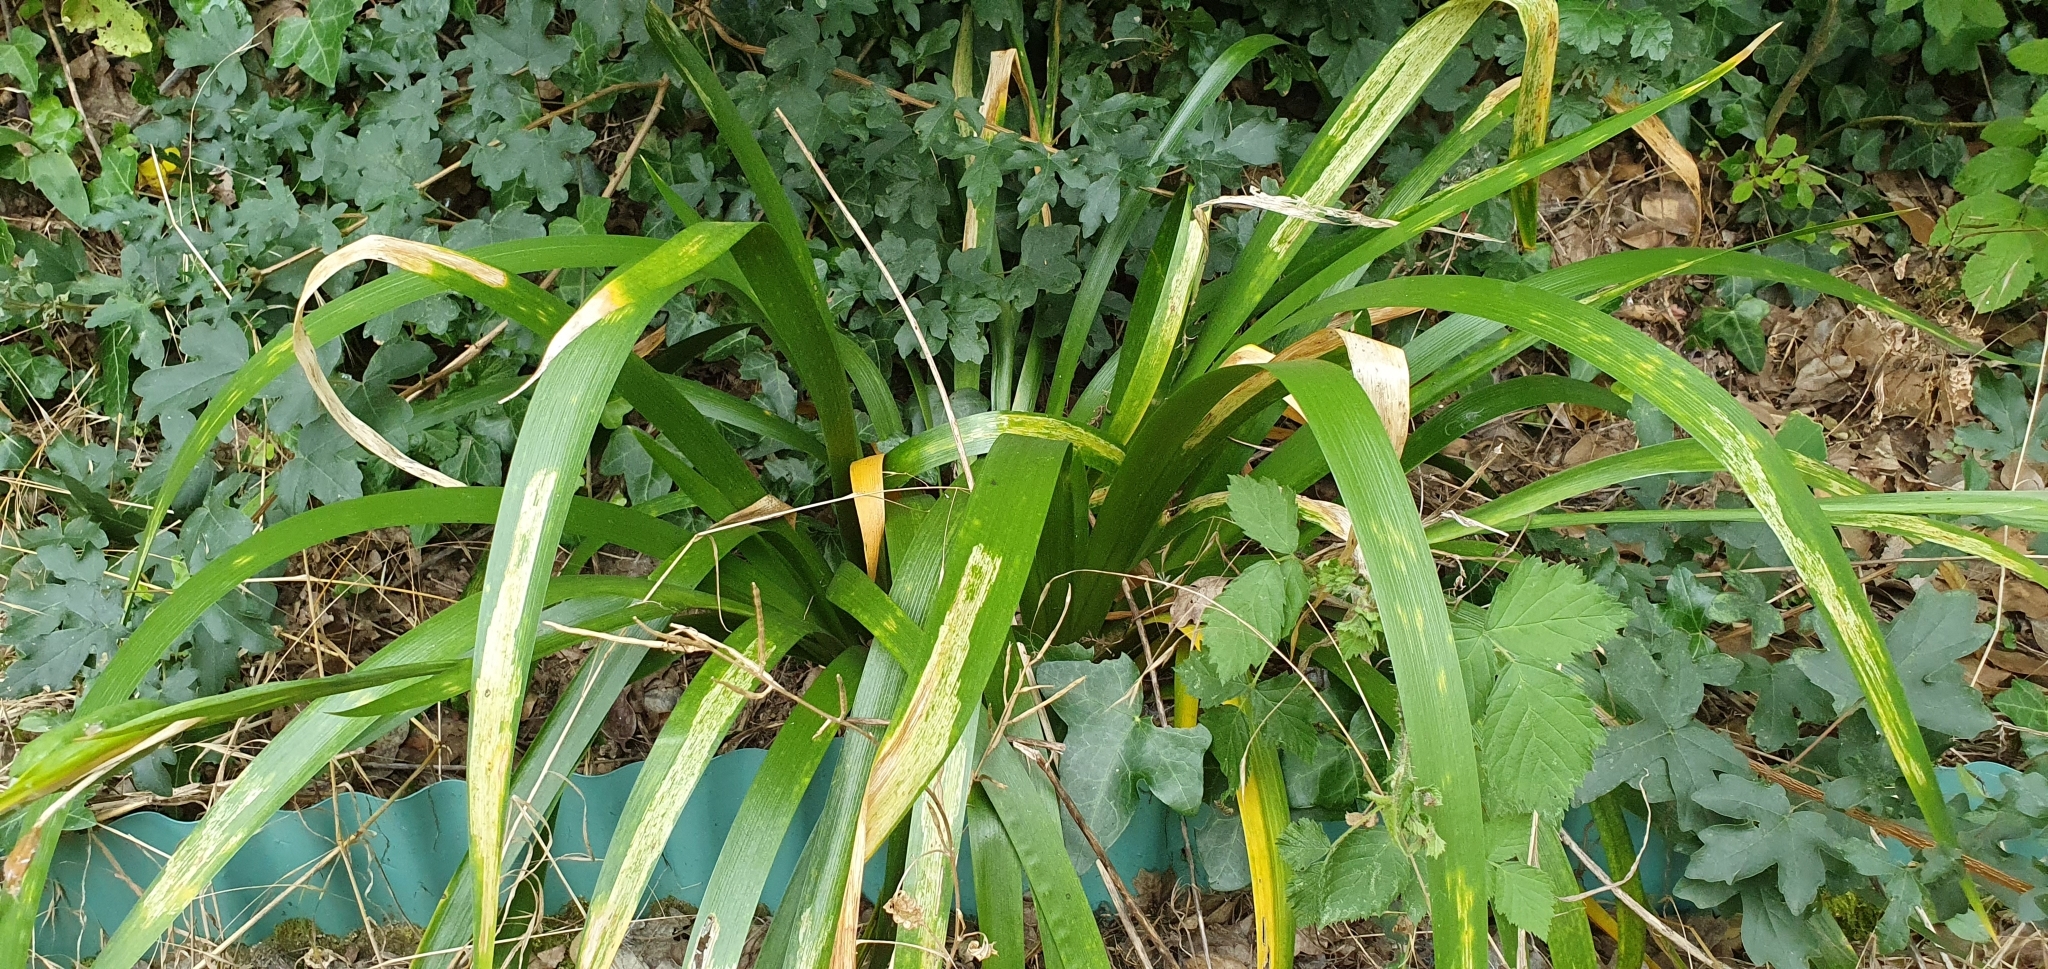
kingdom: Plantae
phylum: Tracheophyta
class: Liliopsida
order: Asparagales
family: Iridaceae
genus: Iris
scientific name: Iris foetidissima
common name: Stinking iris
